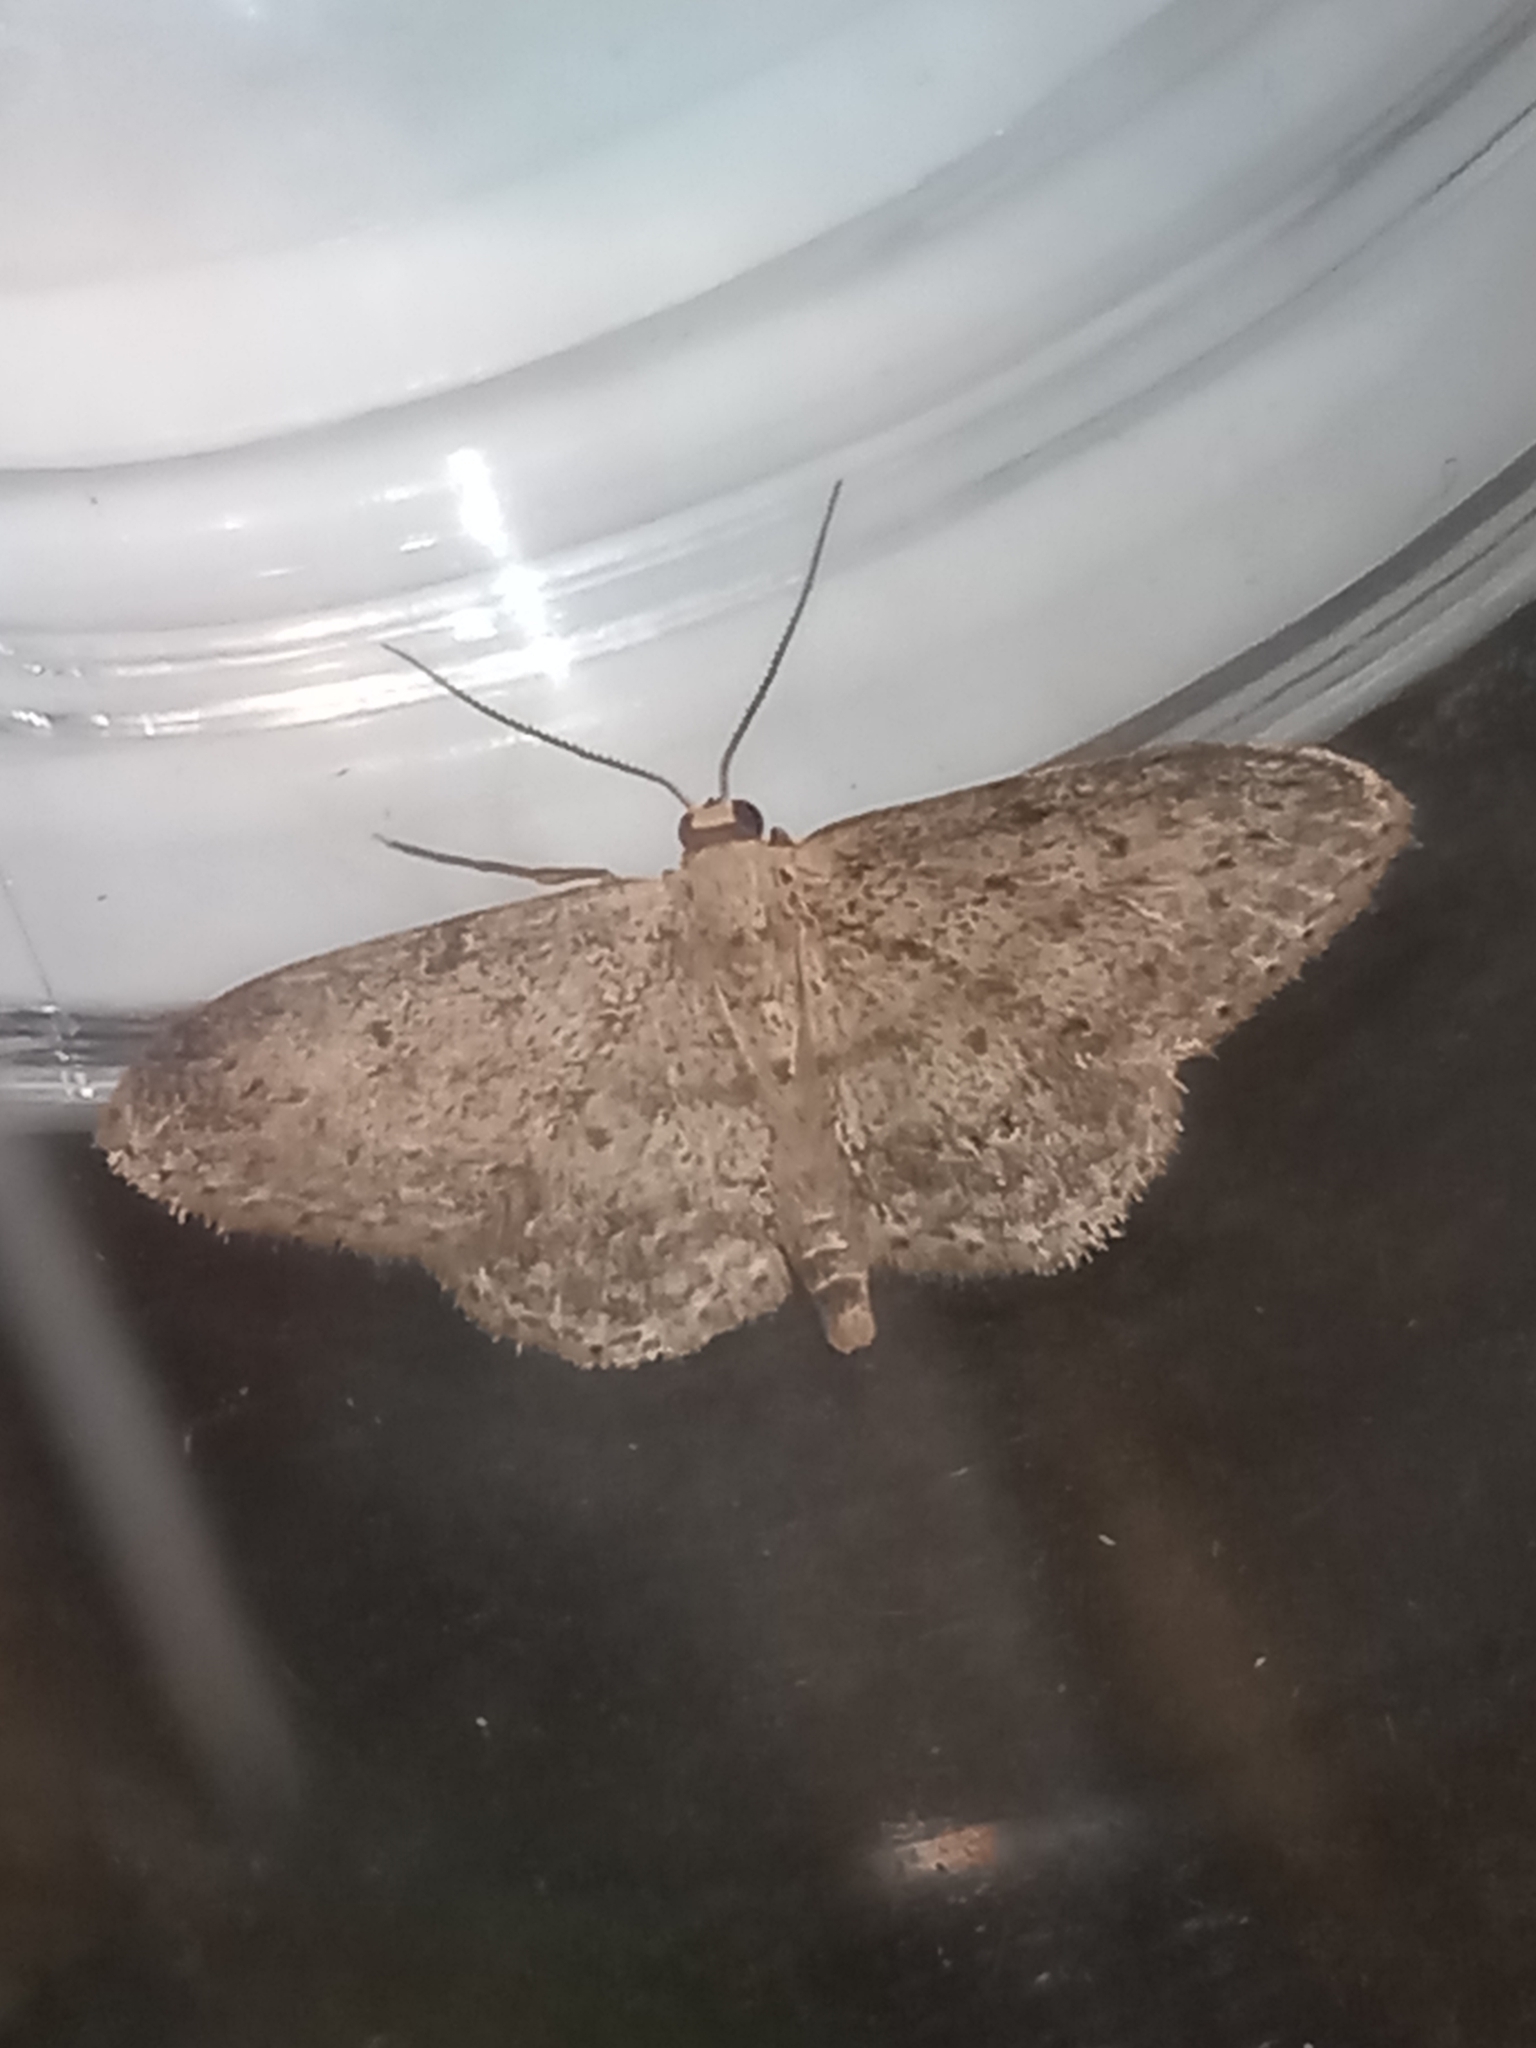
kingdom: Animalia
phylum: Arthropoda
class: Insecta
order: Lepidoptera
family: Geometridae
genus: Idaea
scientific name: Idaea seriata
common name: Small dusty wave
